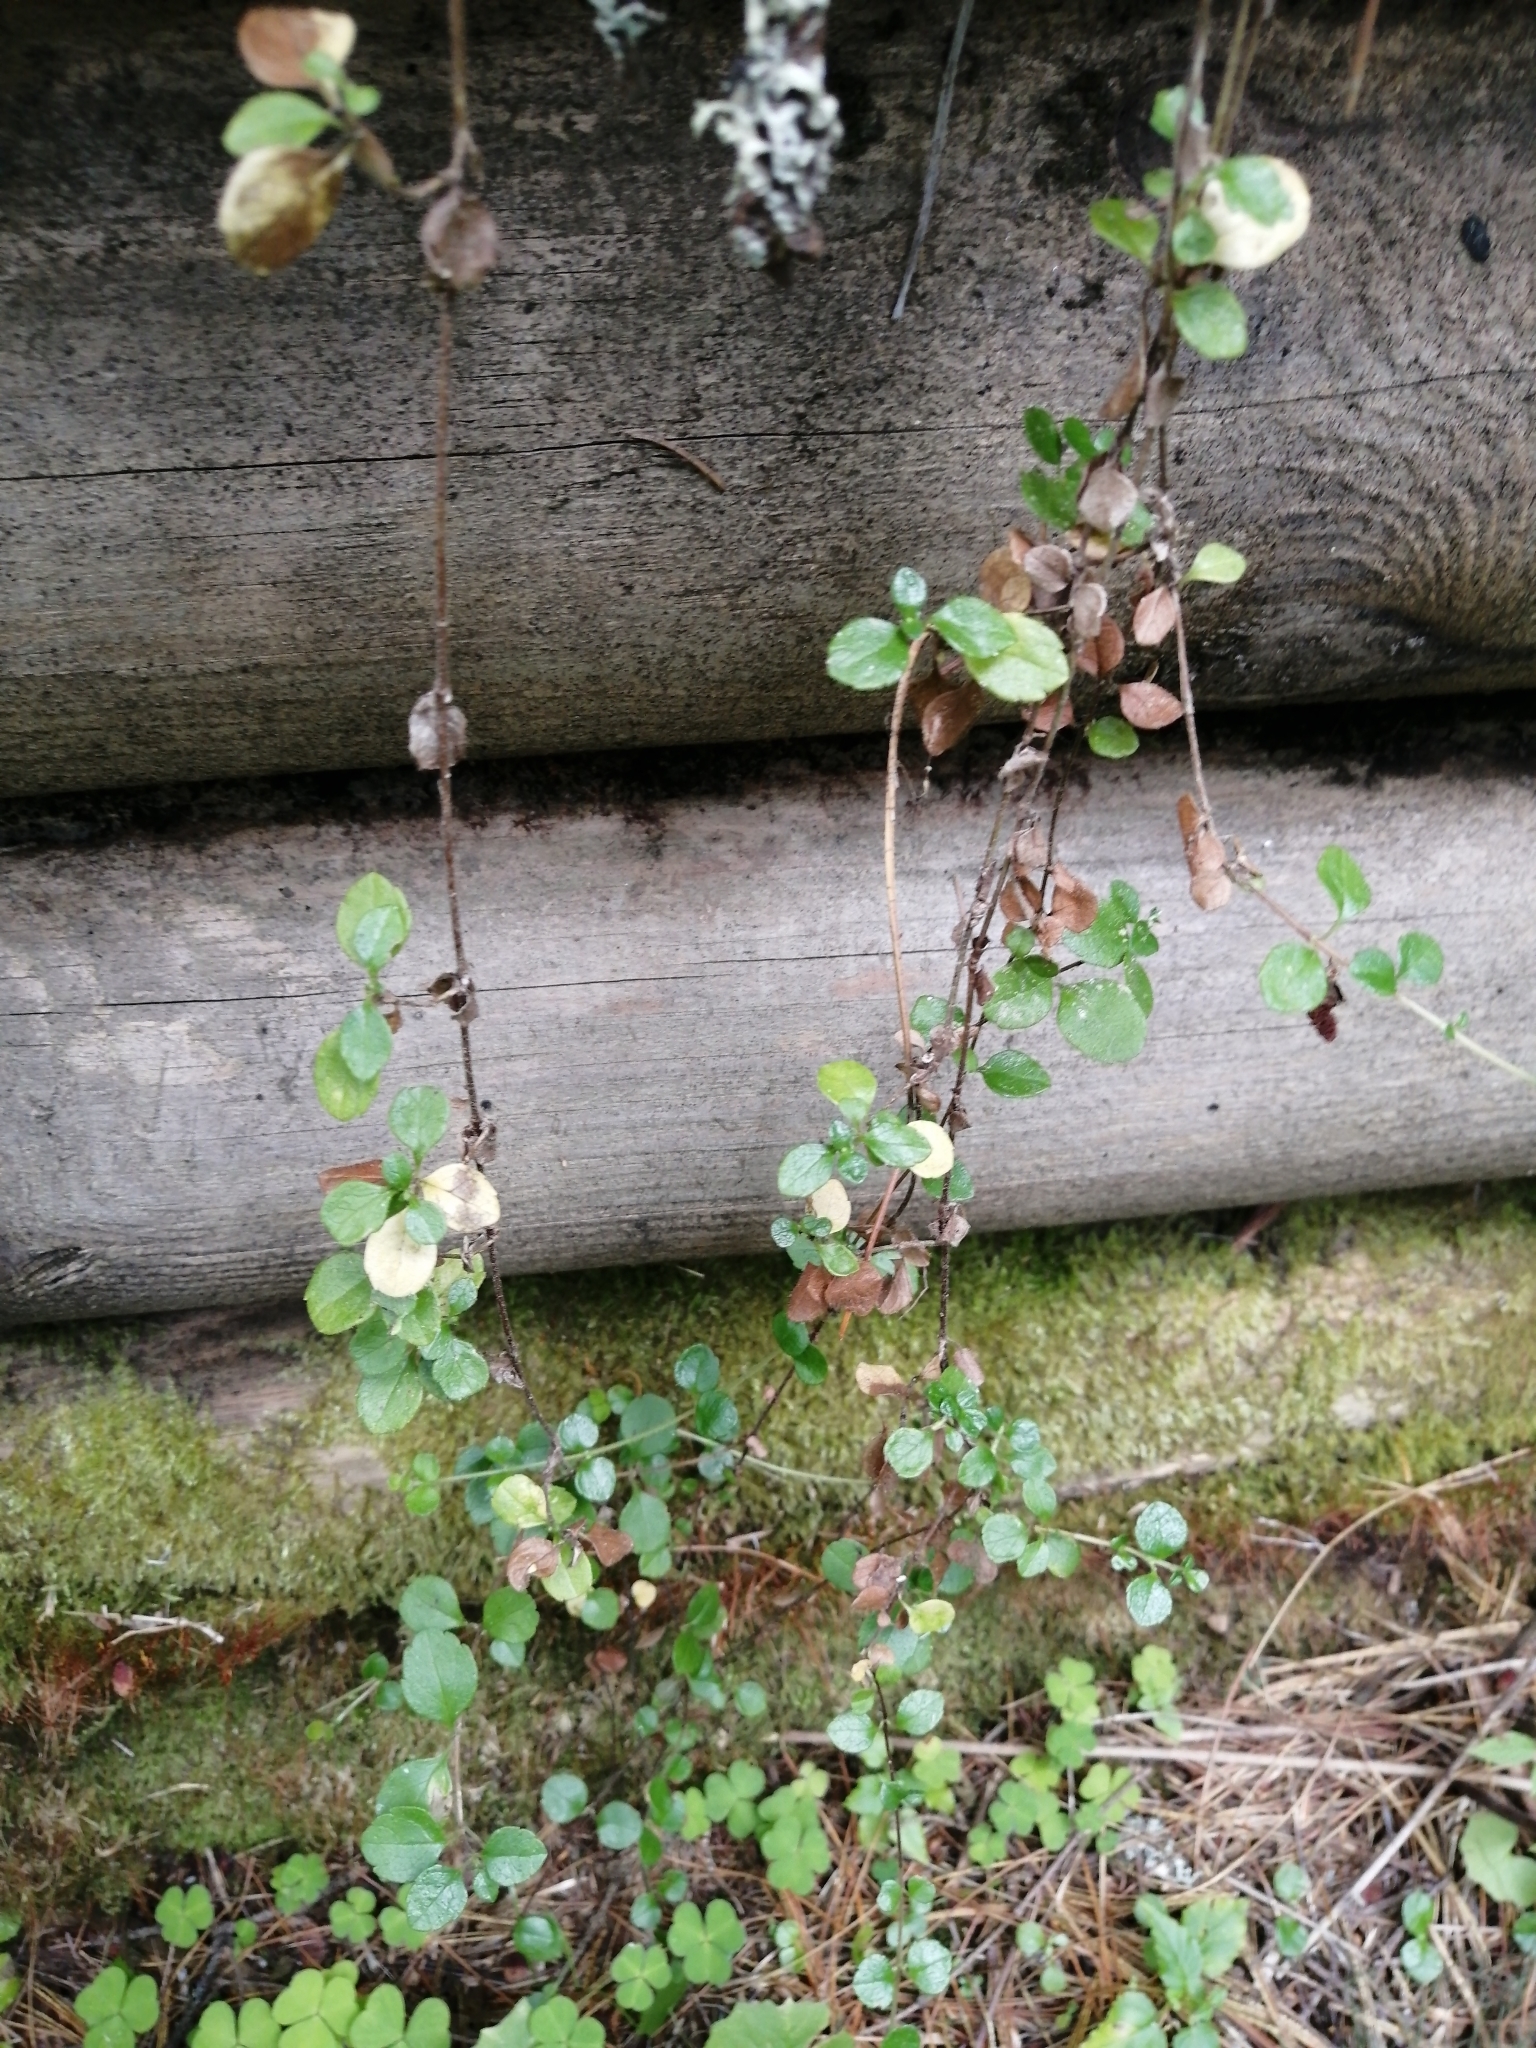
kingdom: Plantae
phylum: Tracheophyta
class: Magnoliopsida
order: Dipsacales
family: Caprifoliaceae
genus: Linnaea
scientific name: Linnaea borealis
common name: Twinflower
